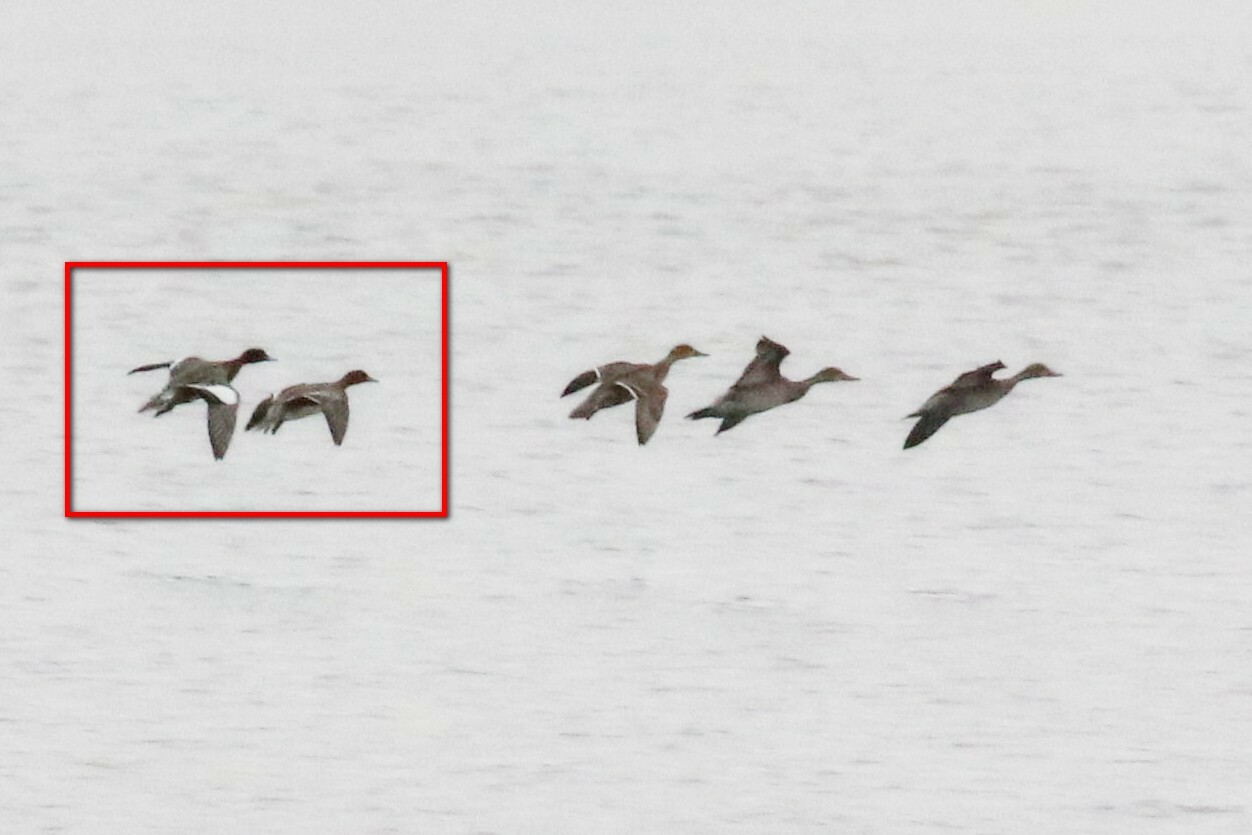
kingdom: Animalia
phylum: Chordata
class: Aves
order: Anseriformes
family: Anatidae
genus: Mareca
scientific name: Mareca penelope
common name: Eurasian wigeon
